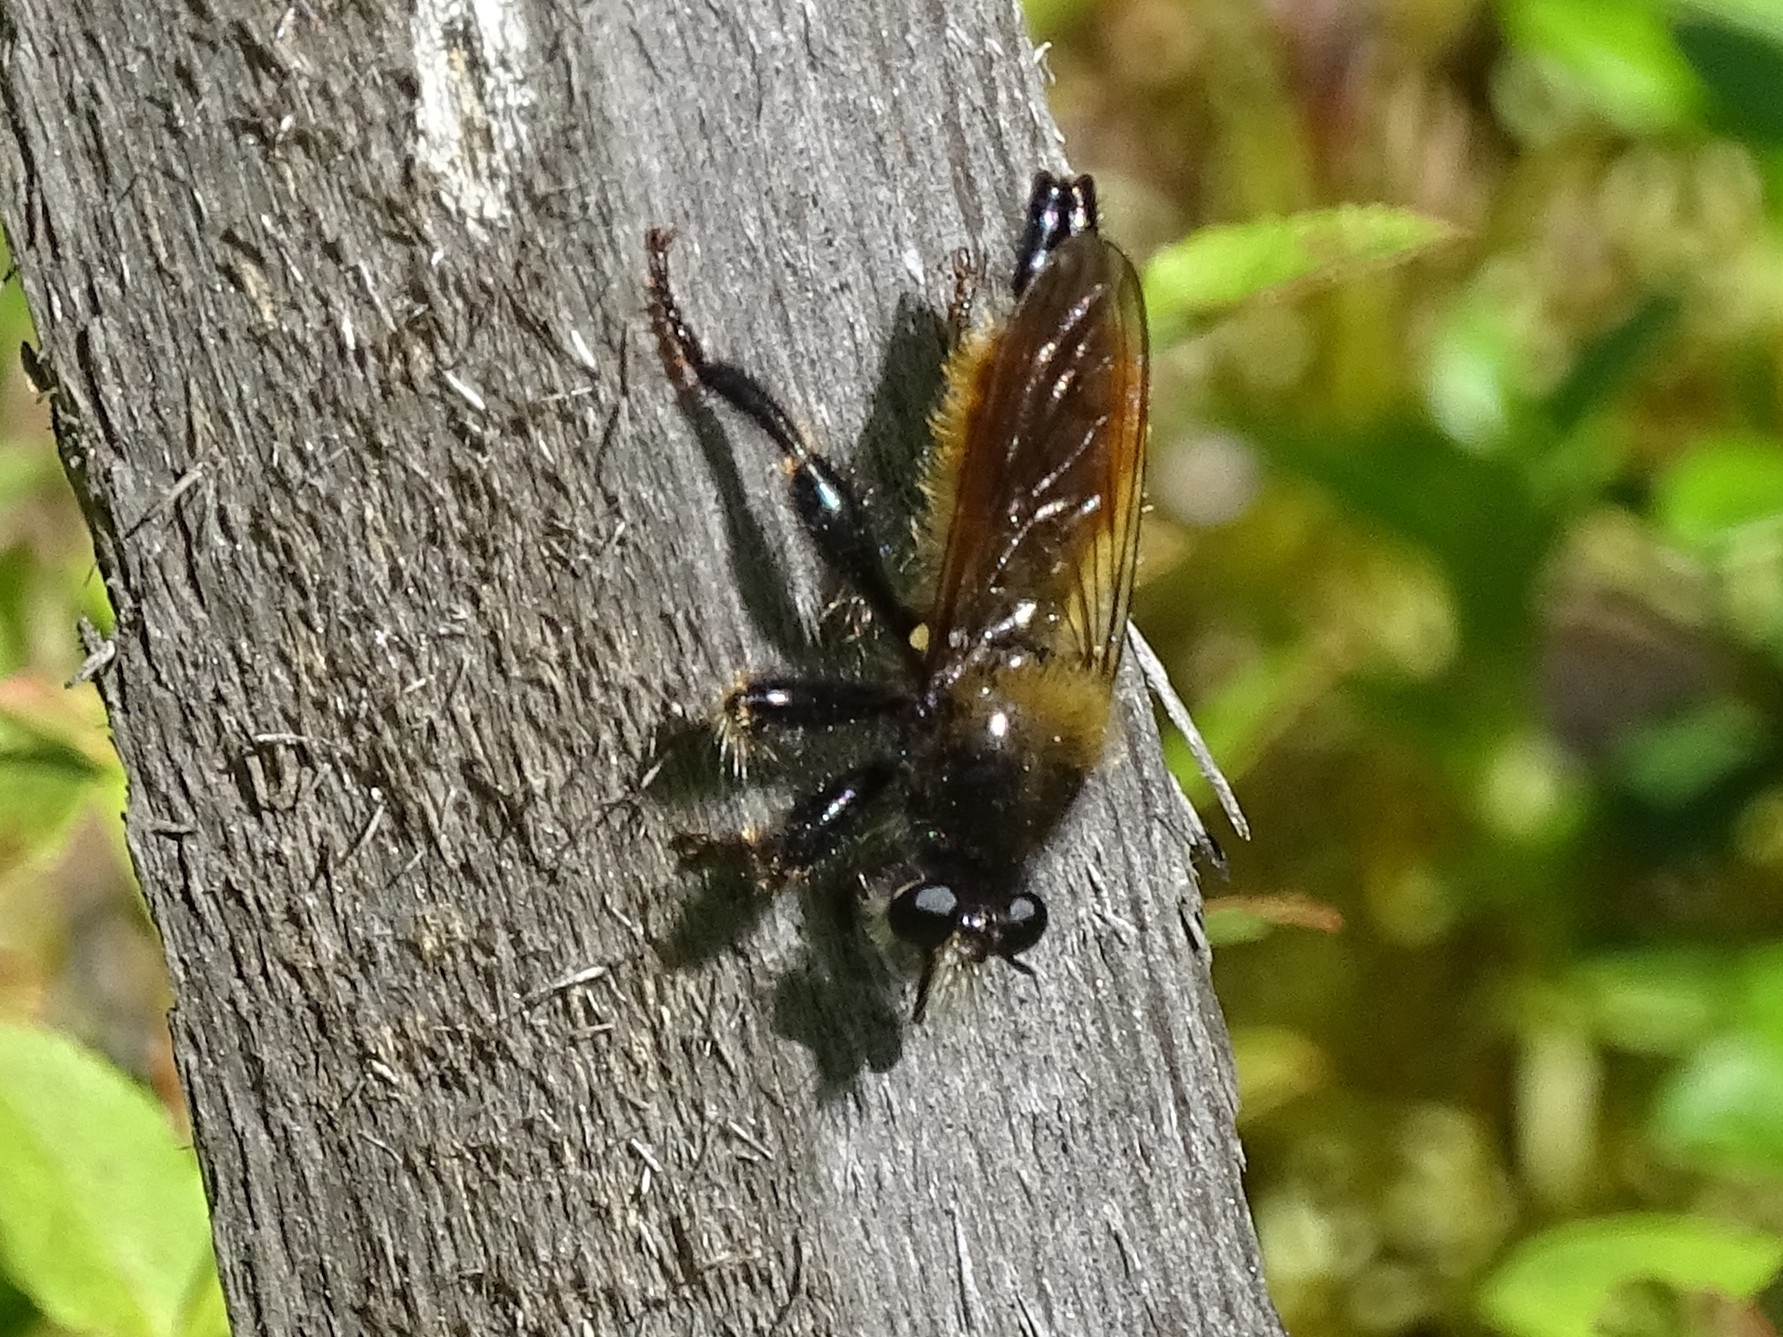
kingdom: Animalia
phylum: Arthropoda
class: Insecta
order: Diptera
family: Asilidae
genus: Laphria
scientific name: Laphria flava
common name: Bumblebee robberfly
